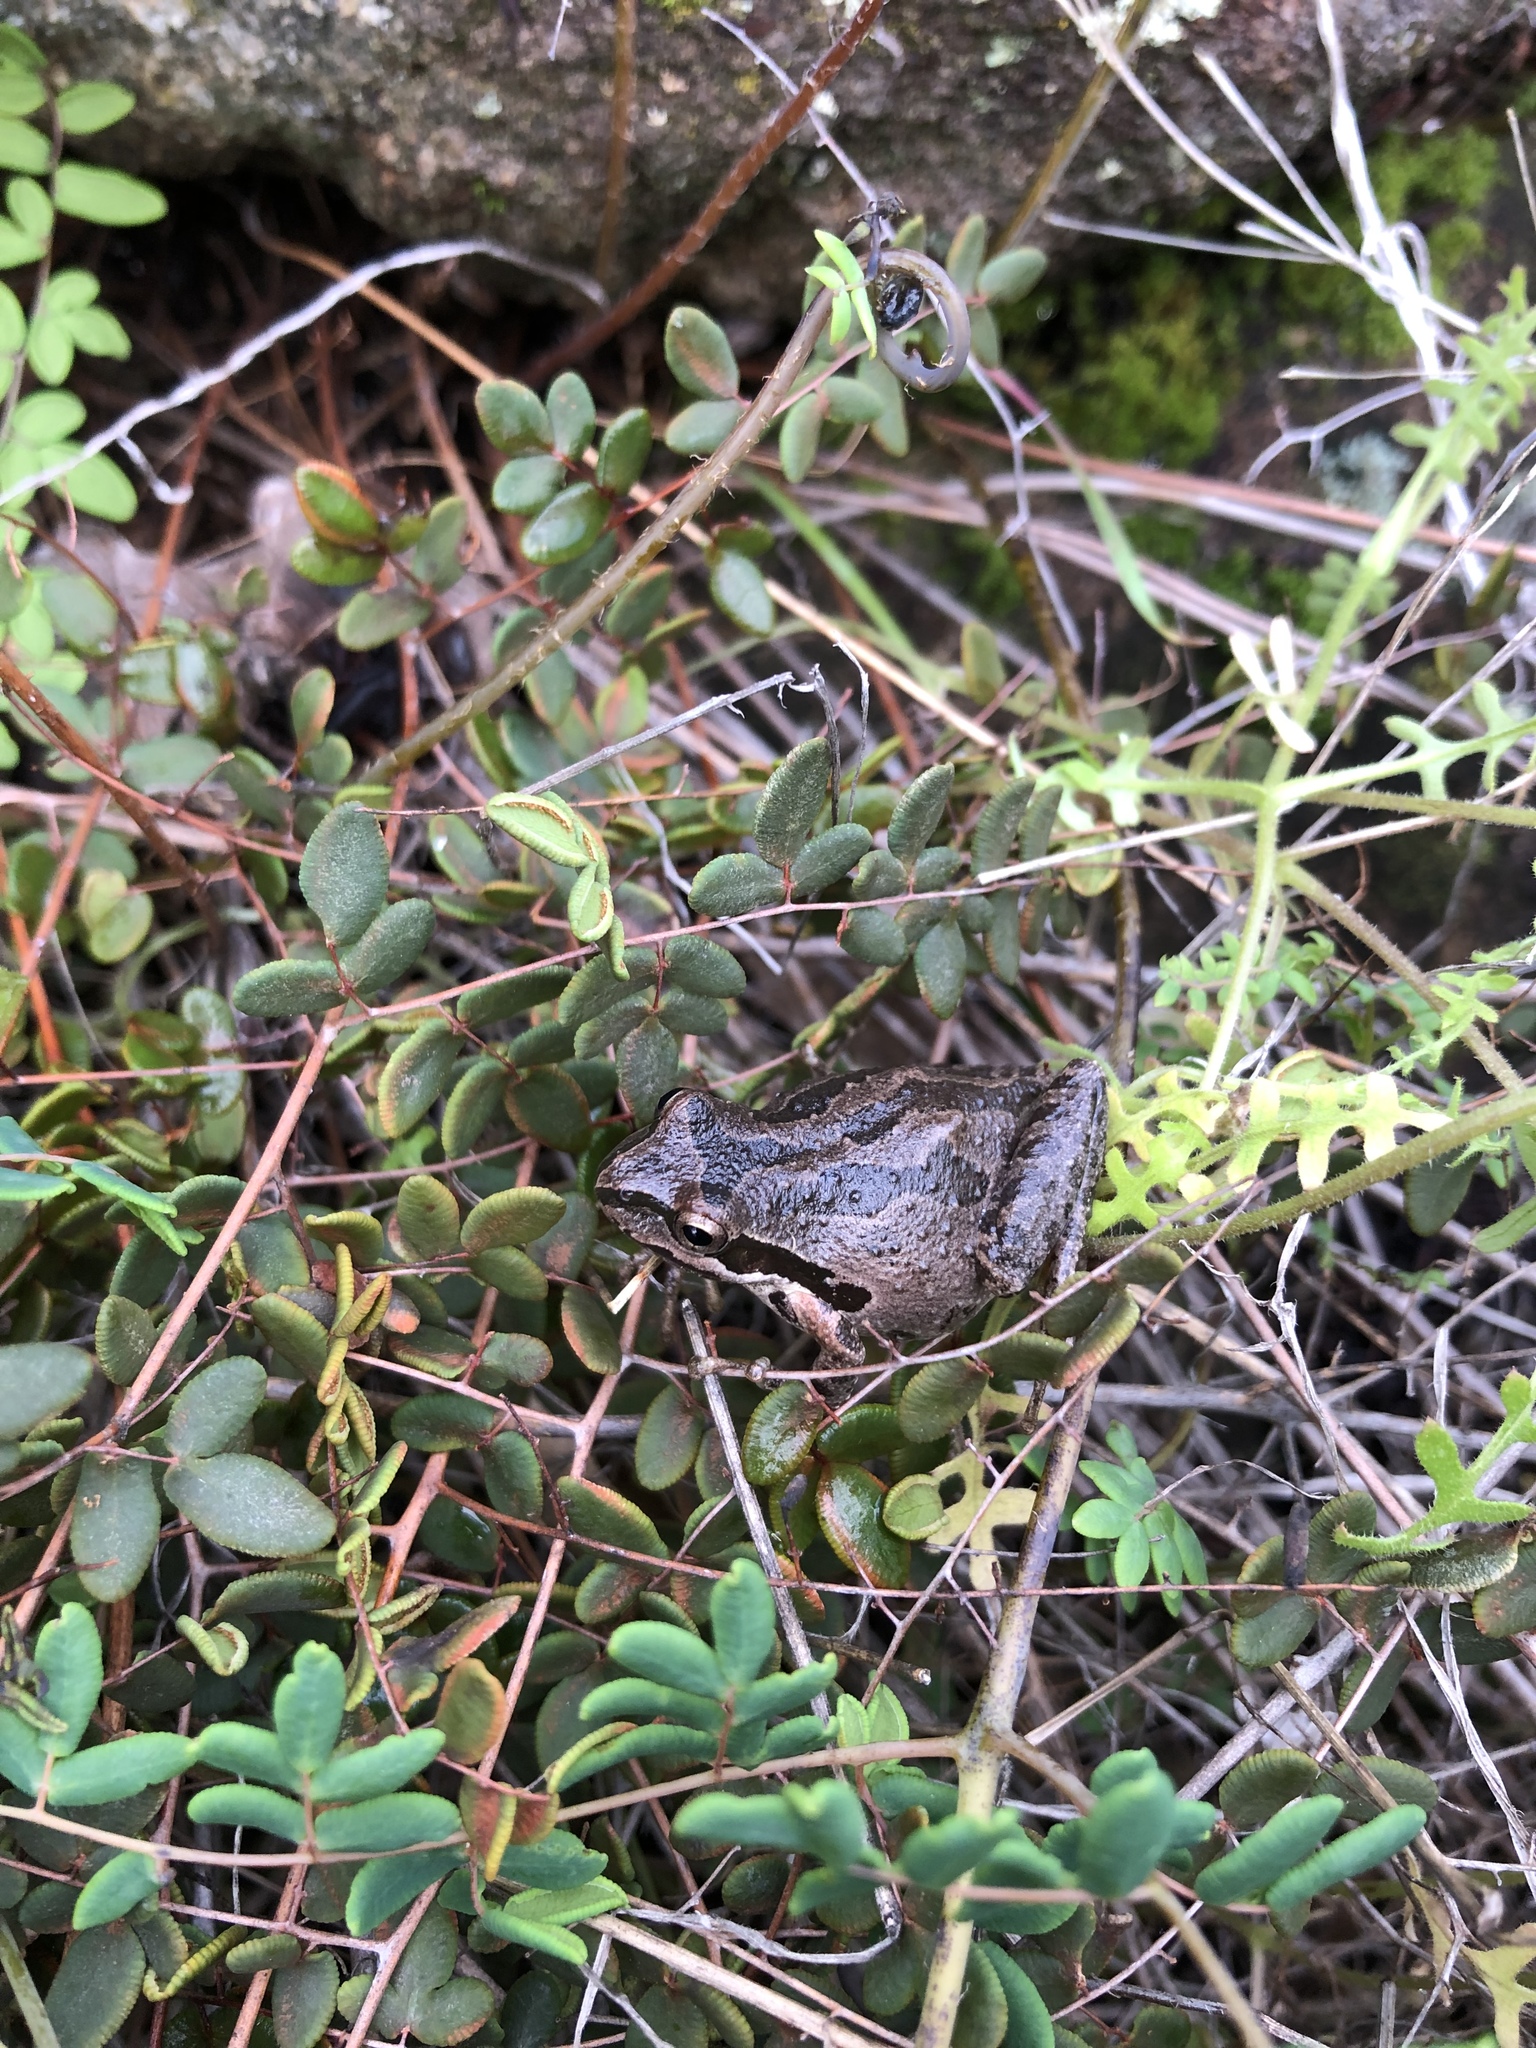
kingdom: Animalia
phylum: Chordata
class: Amphibia
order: Anura
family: Hylidae
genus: Pseudacris
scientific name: Pseudacris regilla
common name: Pacific chorus frog
